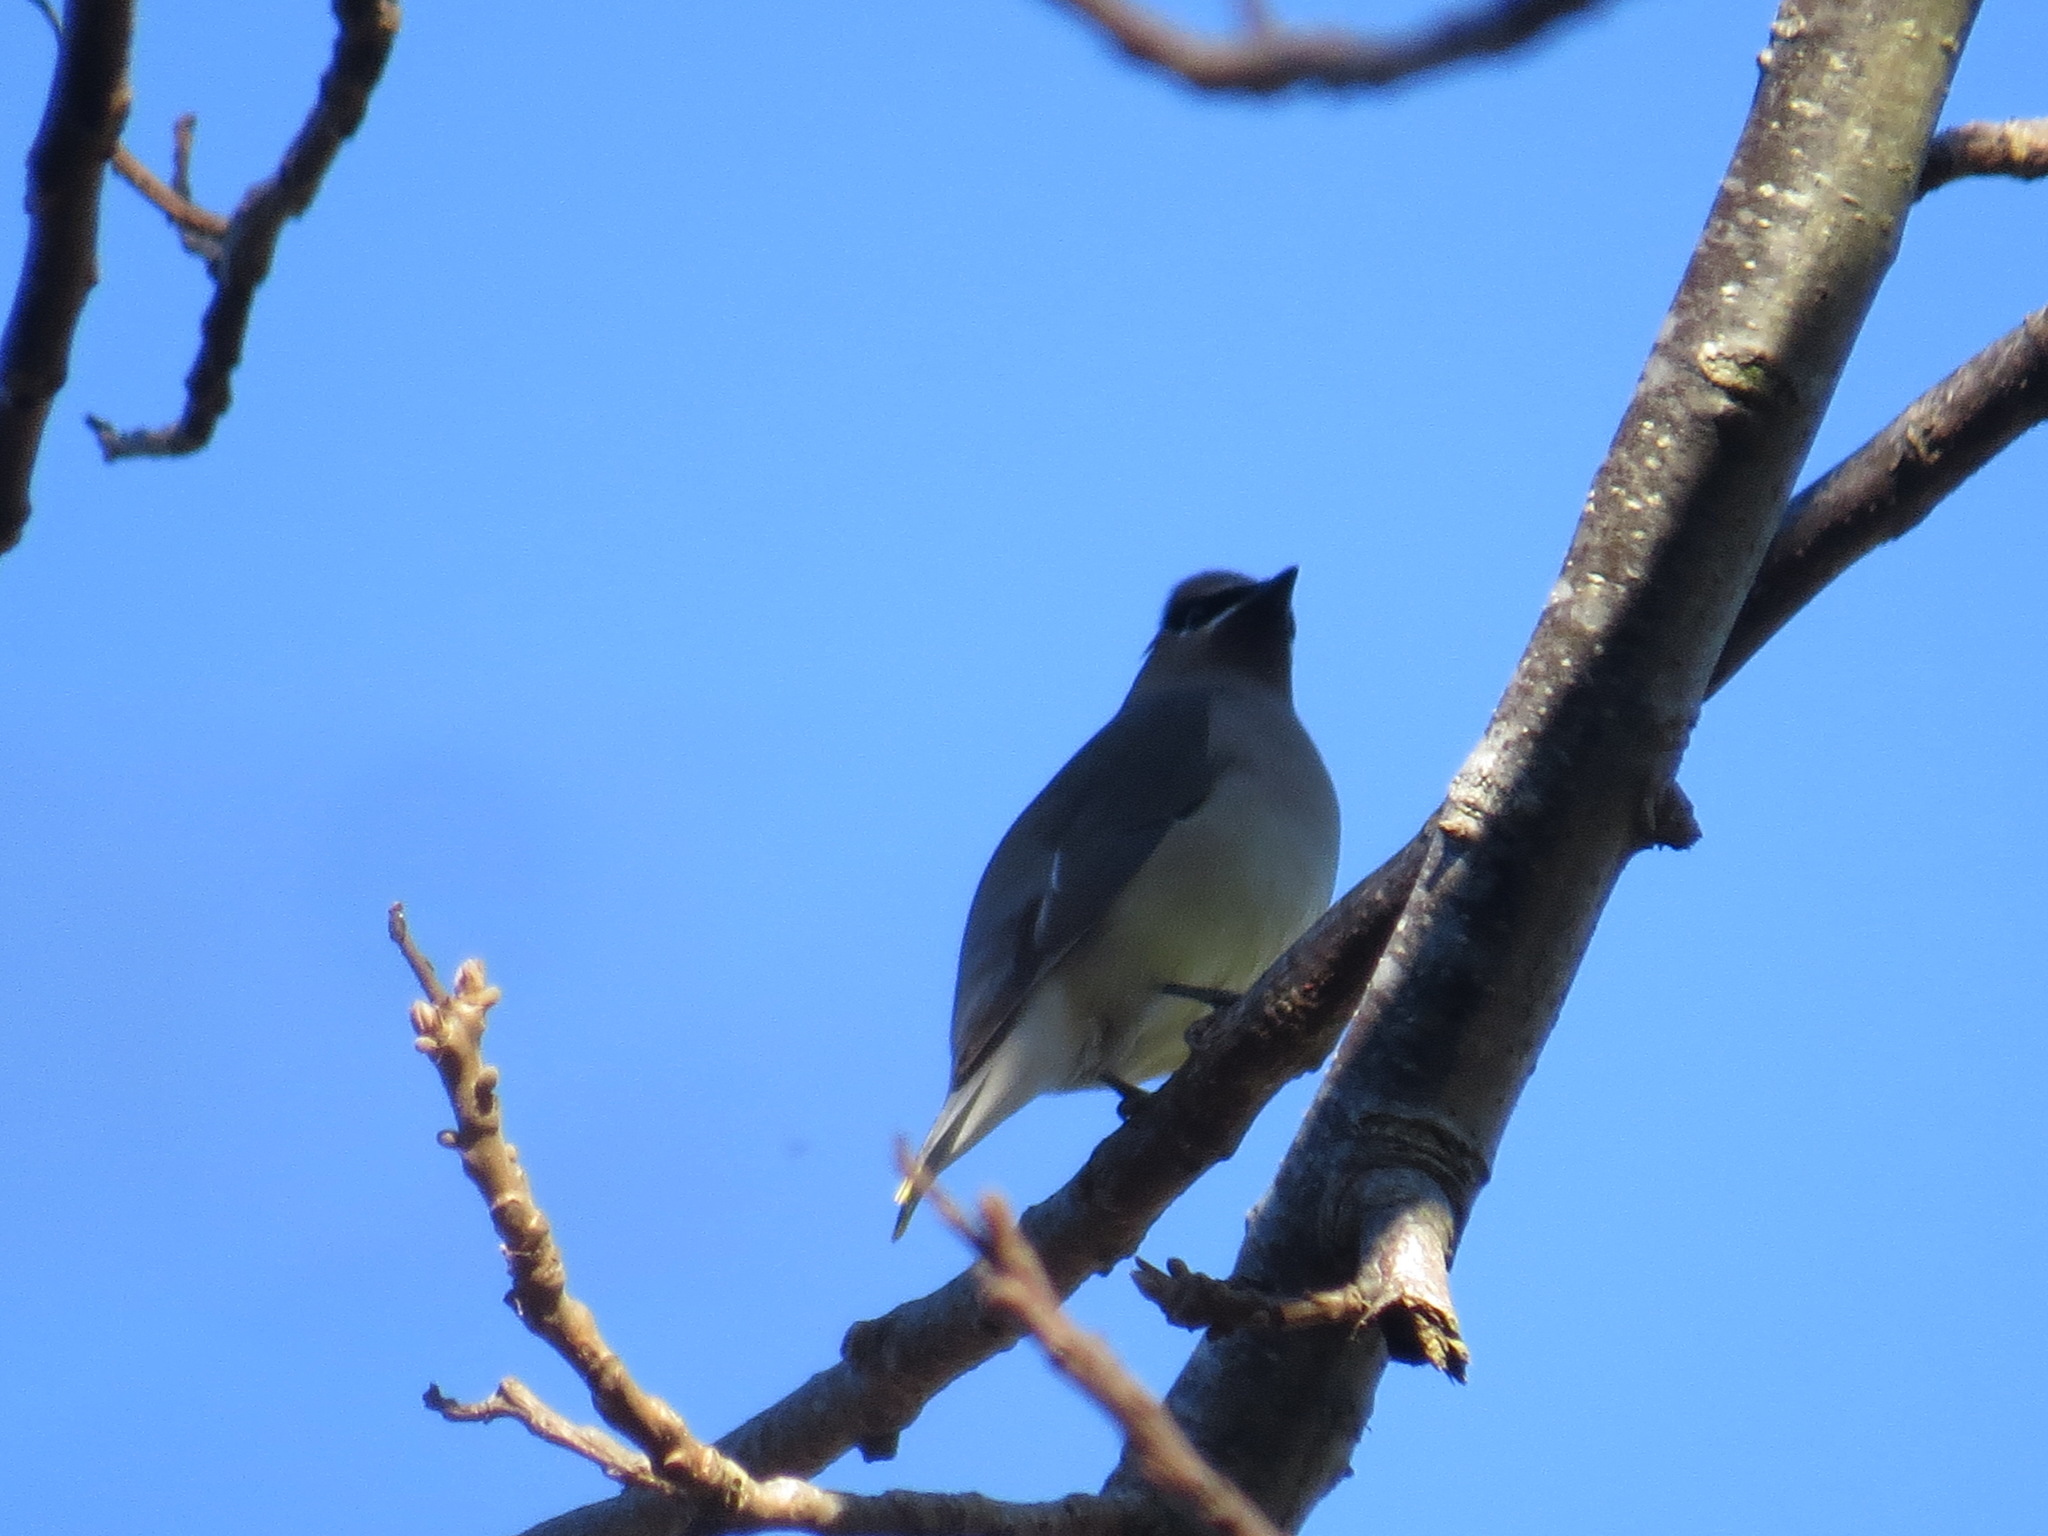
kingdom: Animalia
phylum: Chordata
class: Aves
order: Passeriformes
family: Bombycillidae
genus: Bombycilla
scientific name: Bombycilla cedrorum
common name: Cedar waxwing
